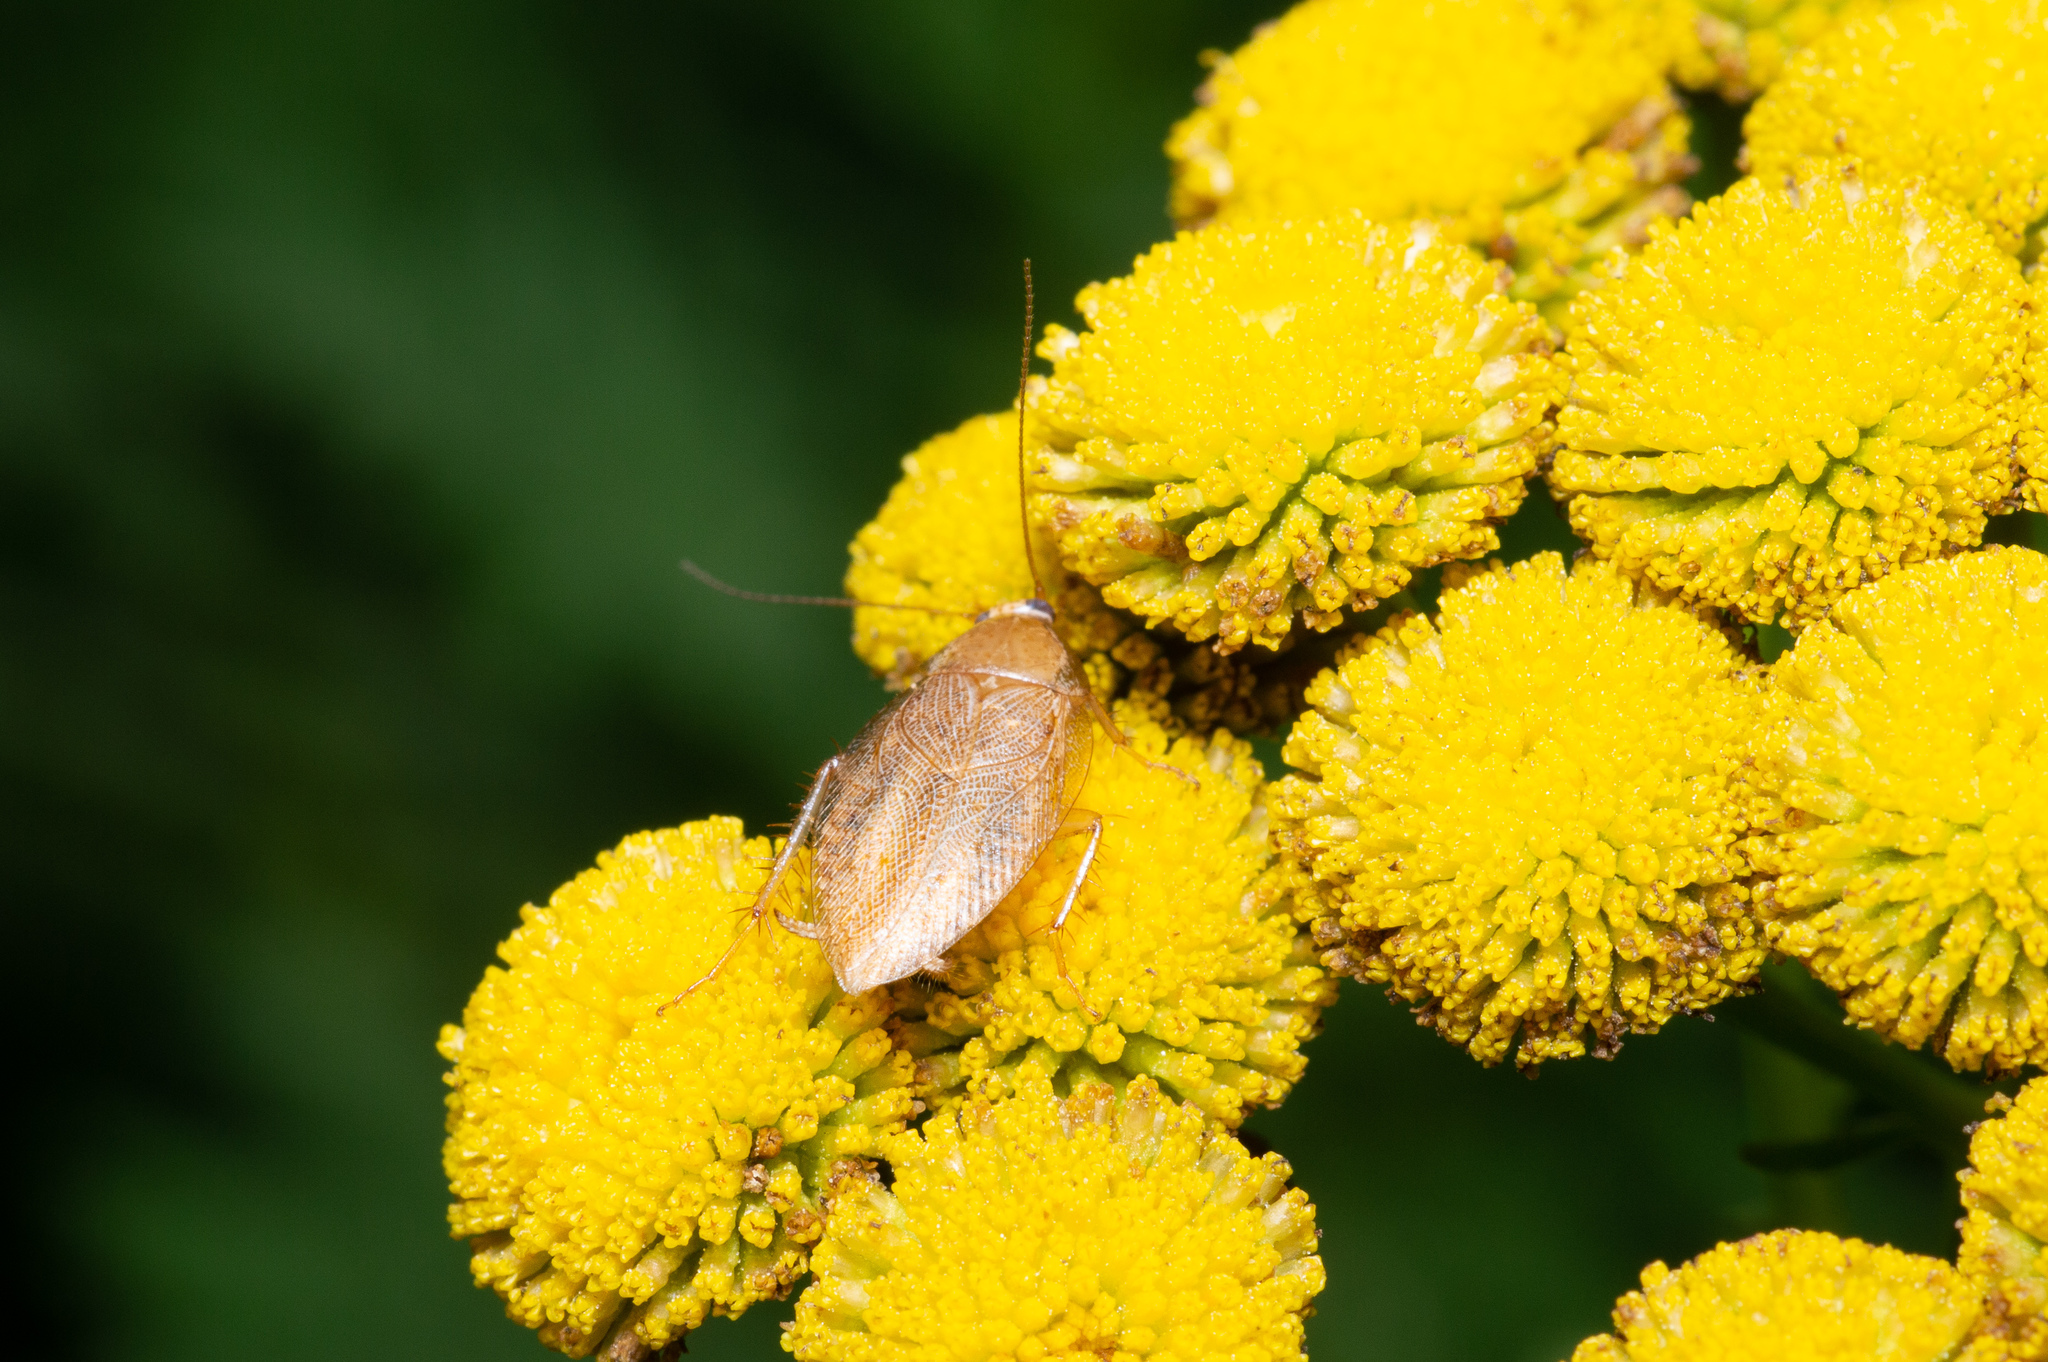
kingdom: Animalia
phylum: Arthropoda
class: Insecta
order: Blattodea
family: Ectobiidae
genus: Ectobius
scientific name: Ectobius pallidus
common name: Tawny cockroach
